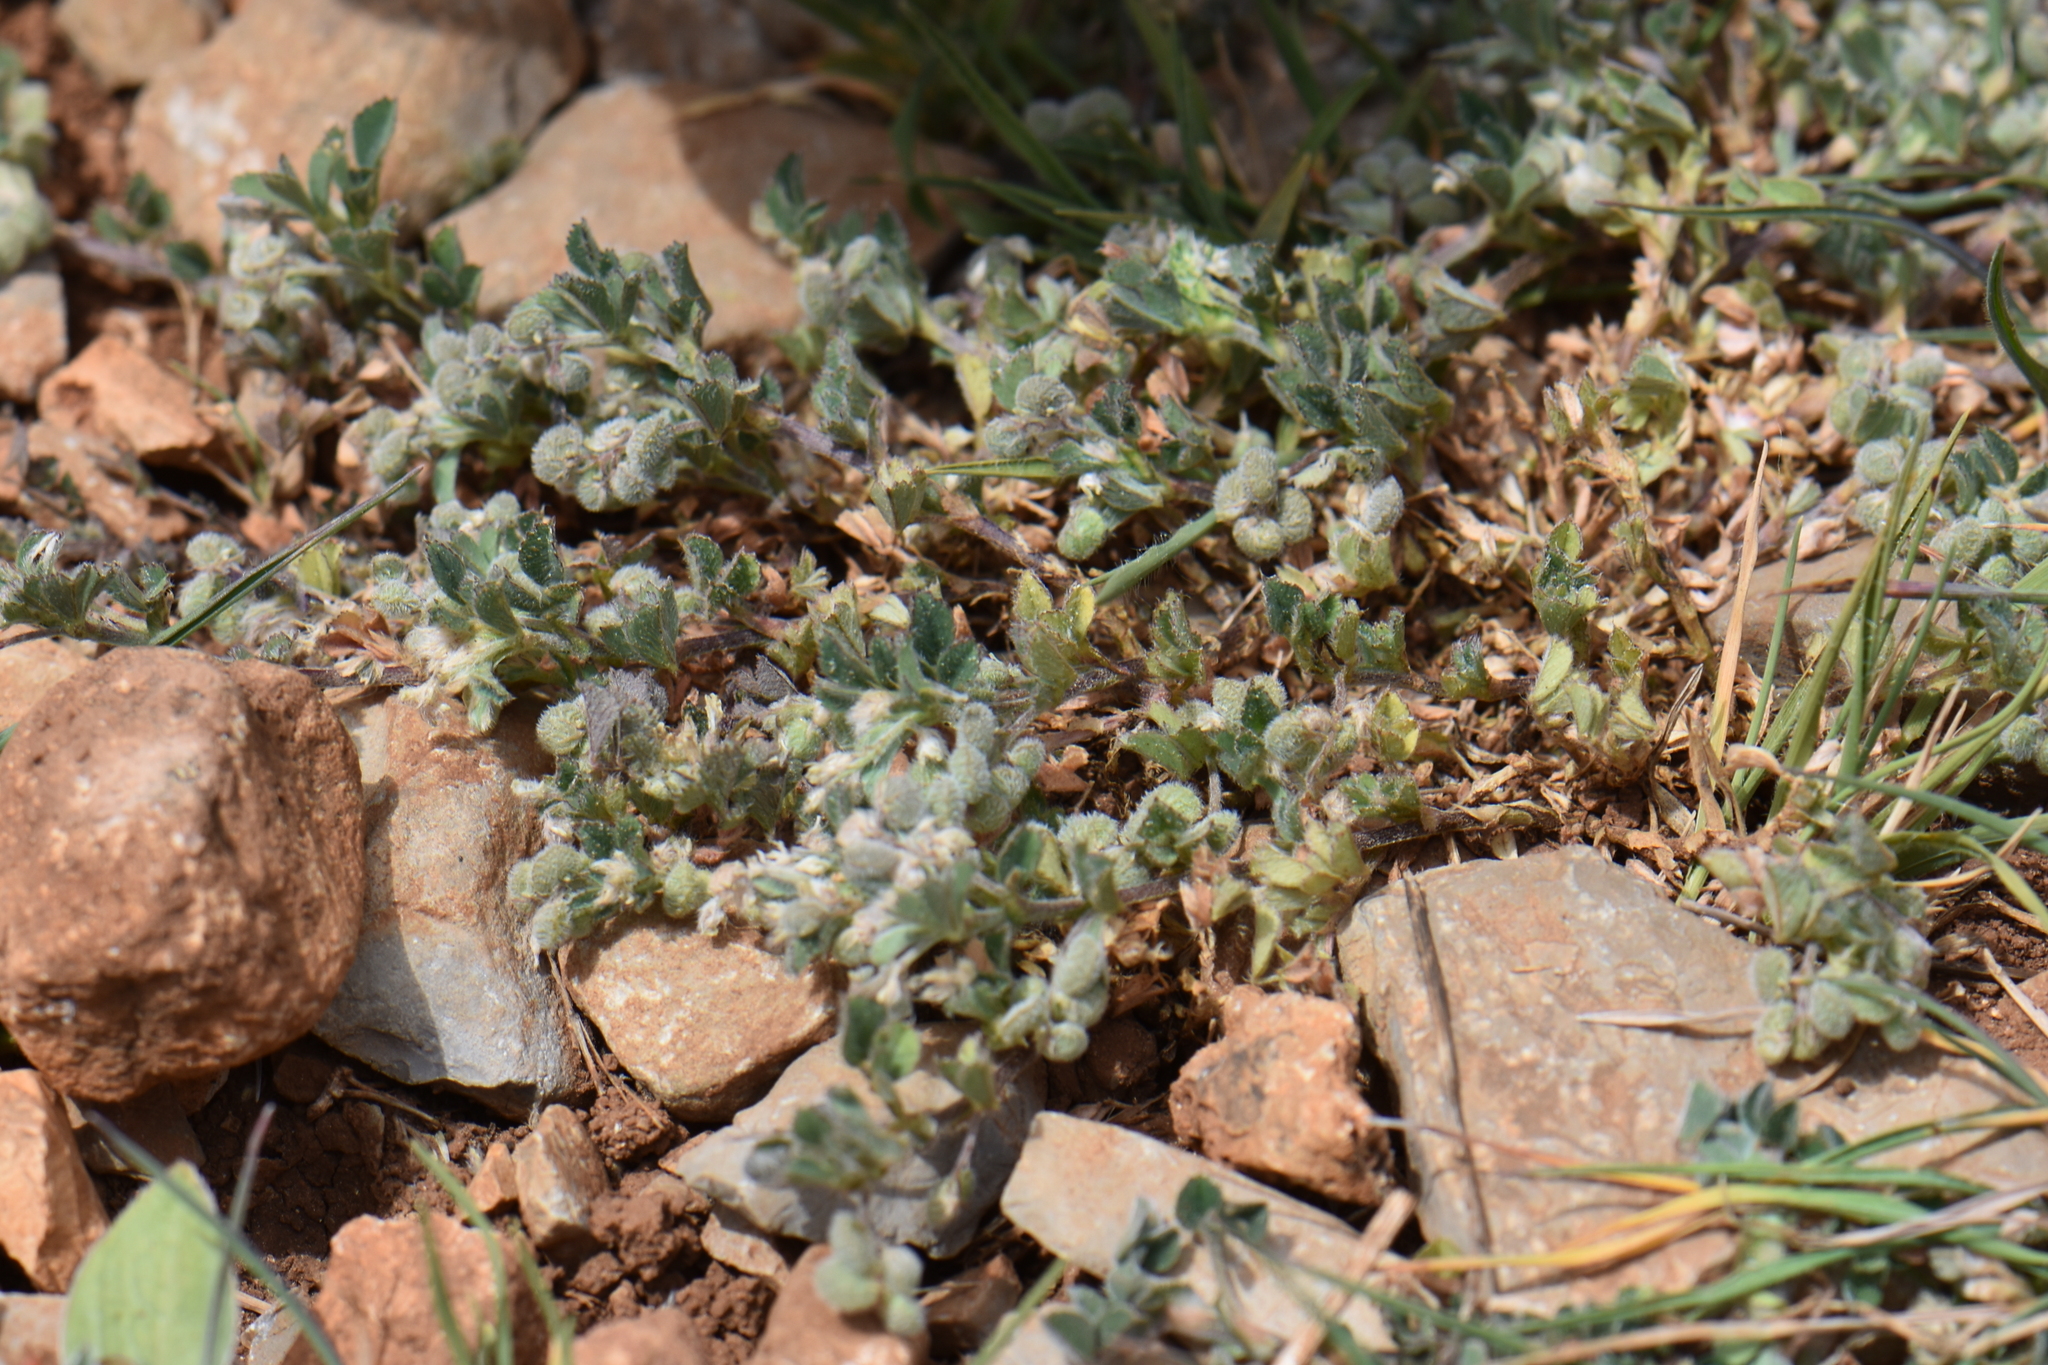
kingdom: Plantae
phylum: Tracheophyta
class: Magnoliopsida
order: Fabales
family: Fabaceae
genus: Medicago
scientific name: Medicago secundiflora
